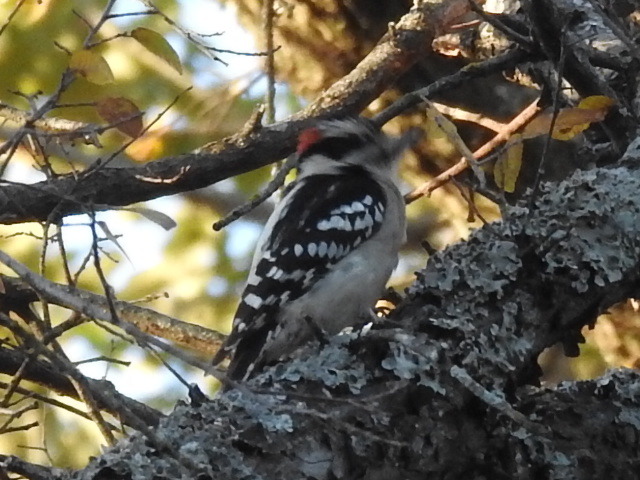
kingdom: Animalia
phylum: Chordata
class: Aves
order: Piciformes
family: Picidae
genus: Dryobates
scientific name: Dryobates pubescens
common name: Downy woodpecker
